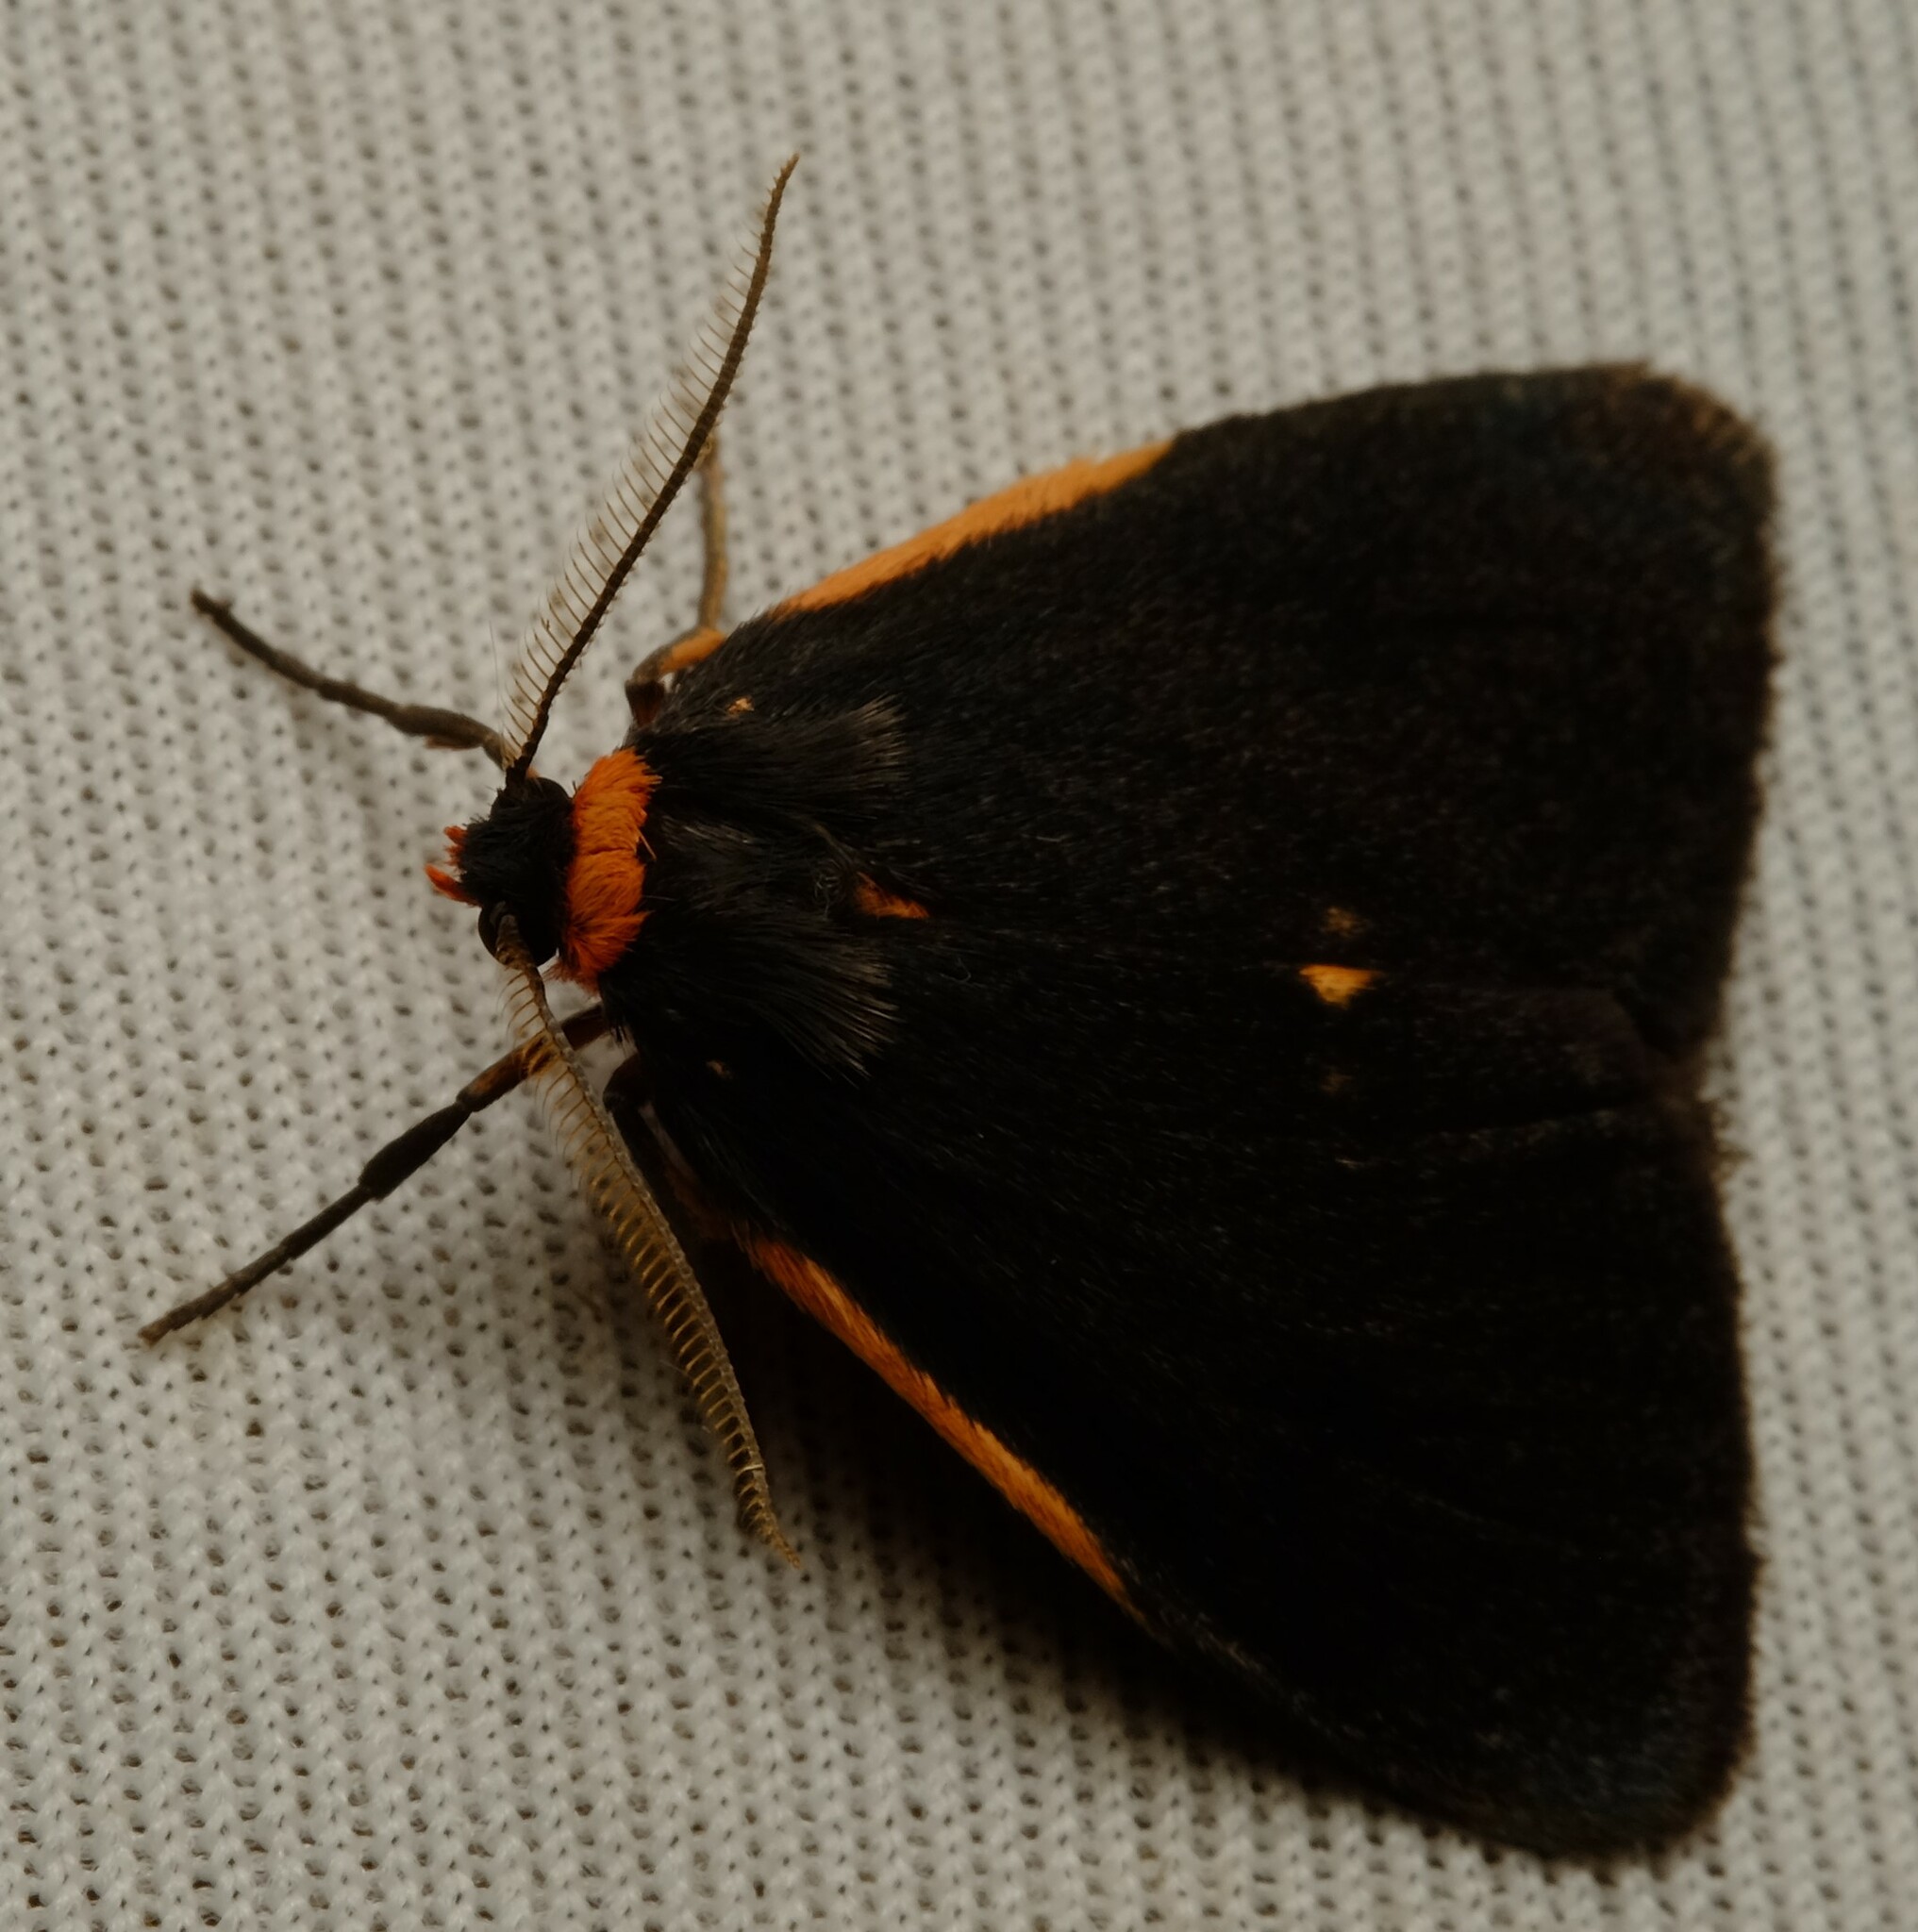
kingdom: Animalia
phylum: Arthropoda
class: Insecta
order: Lepidoptera
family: Erebidae
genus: Castulo
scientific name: Castulo doubledayi
